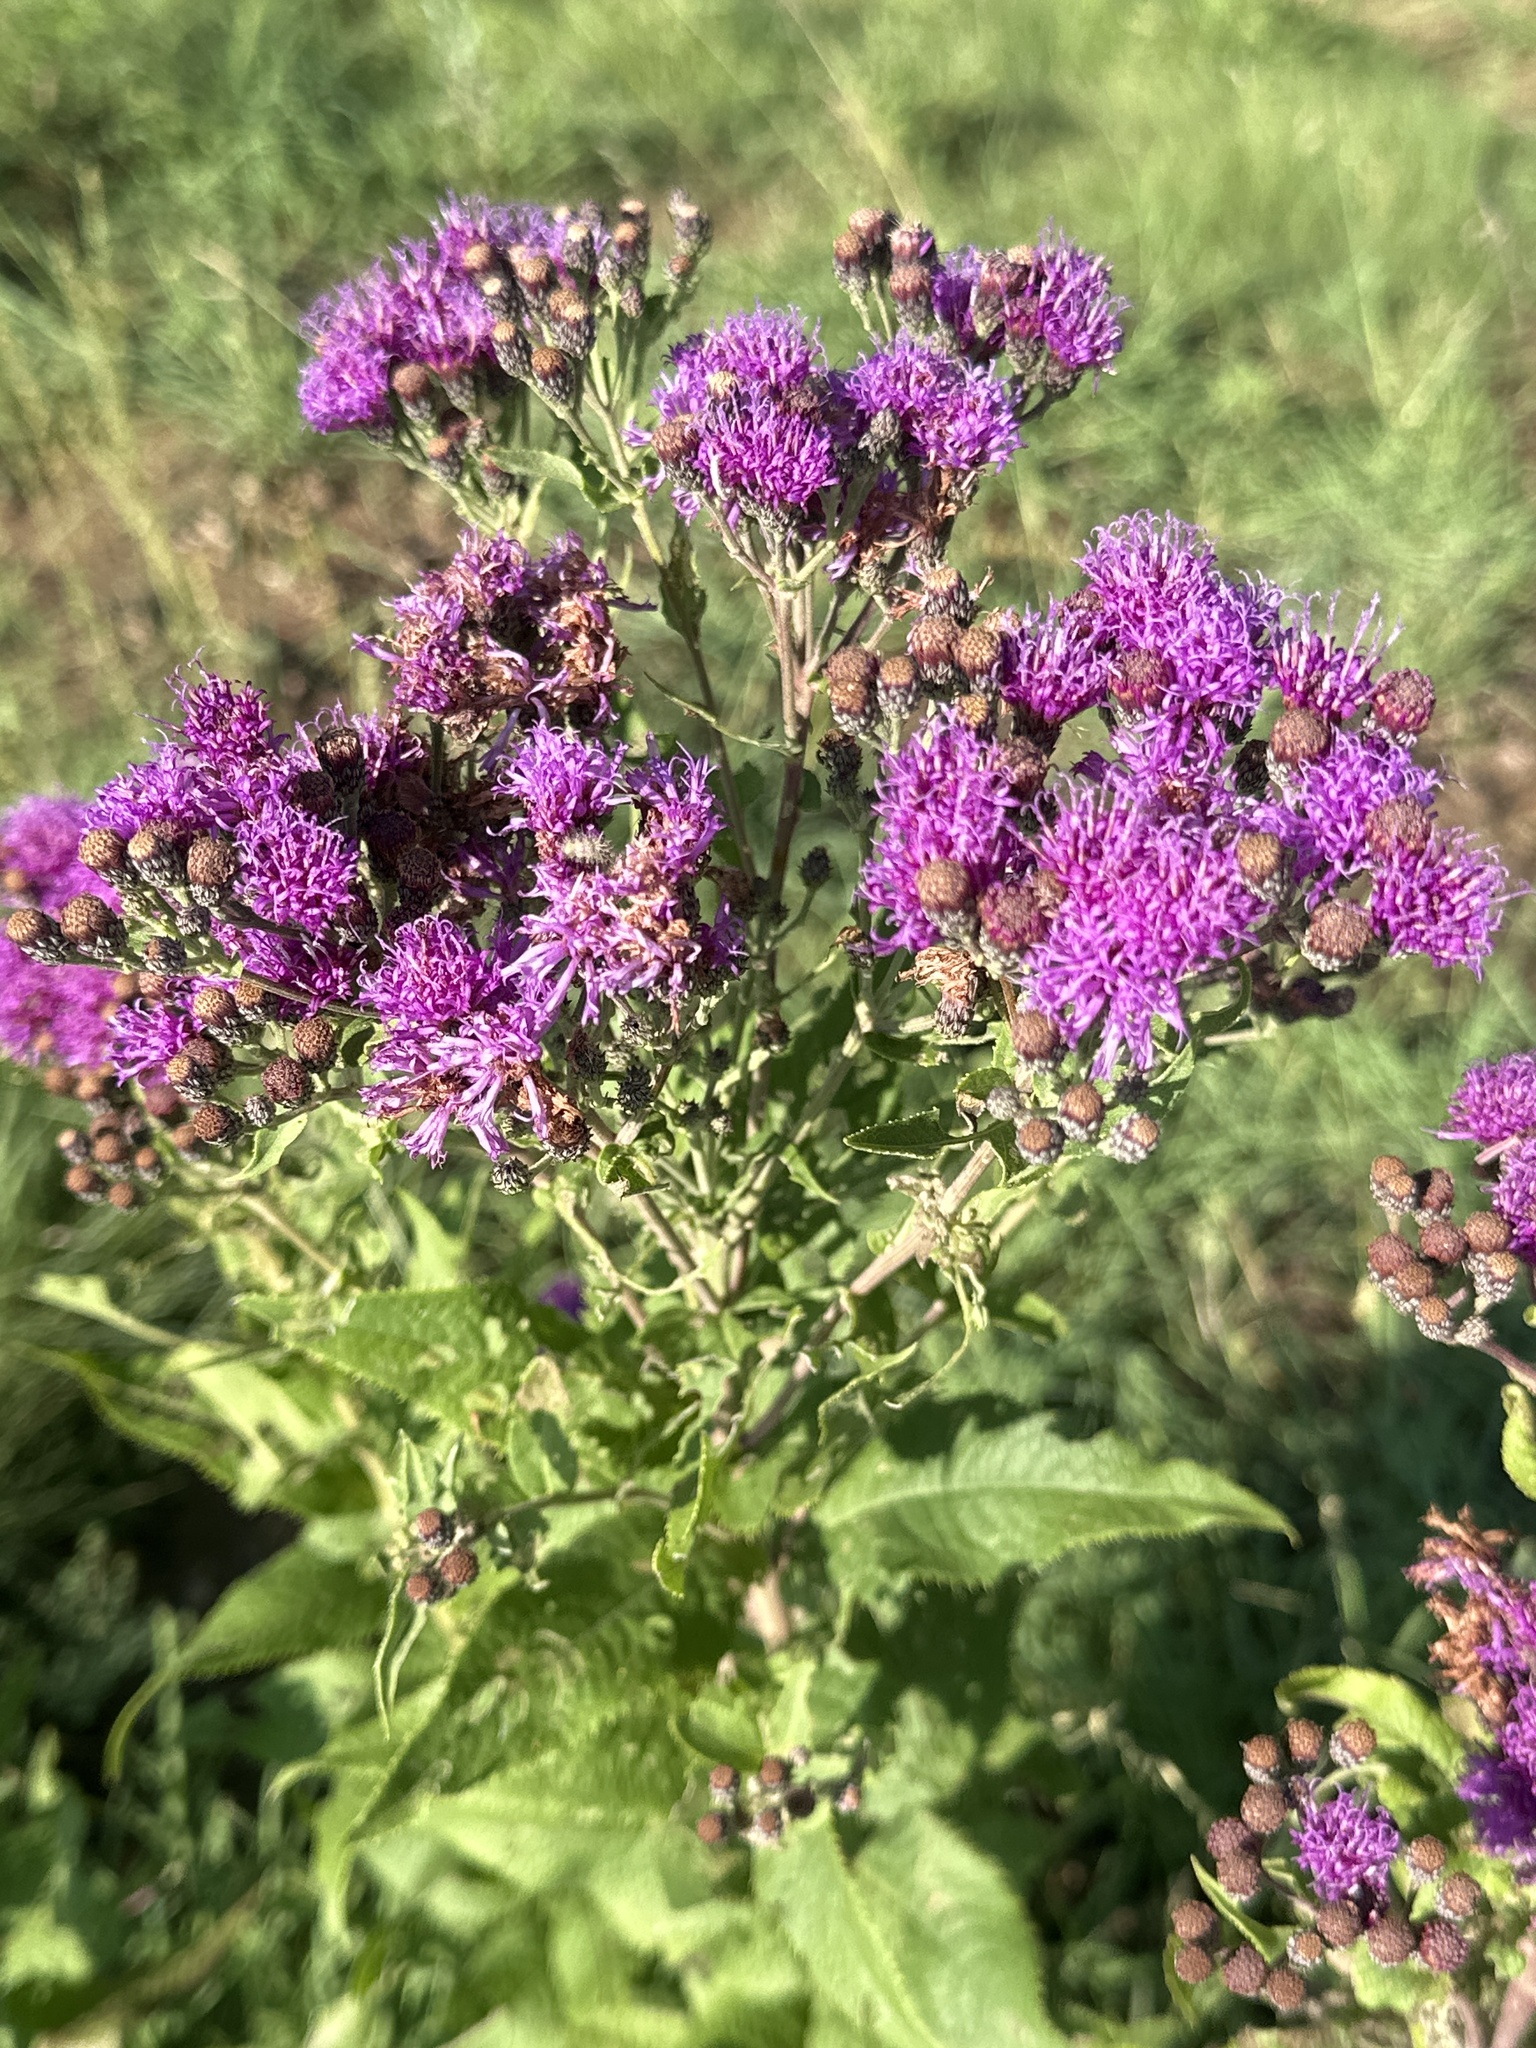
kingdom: Plantae
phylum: Tracheophyta
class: Magnoliopsida
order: Asterales
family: Asteraceae
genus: Vernonia
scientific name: Vernonia baldwinii
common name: Western ironweed
